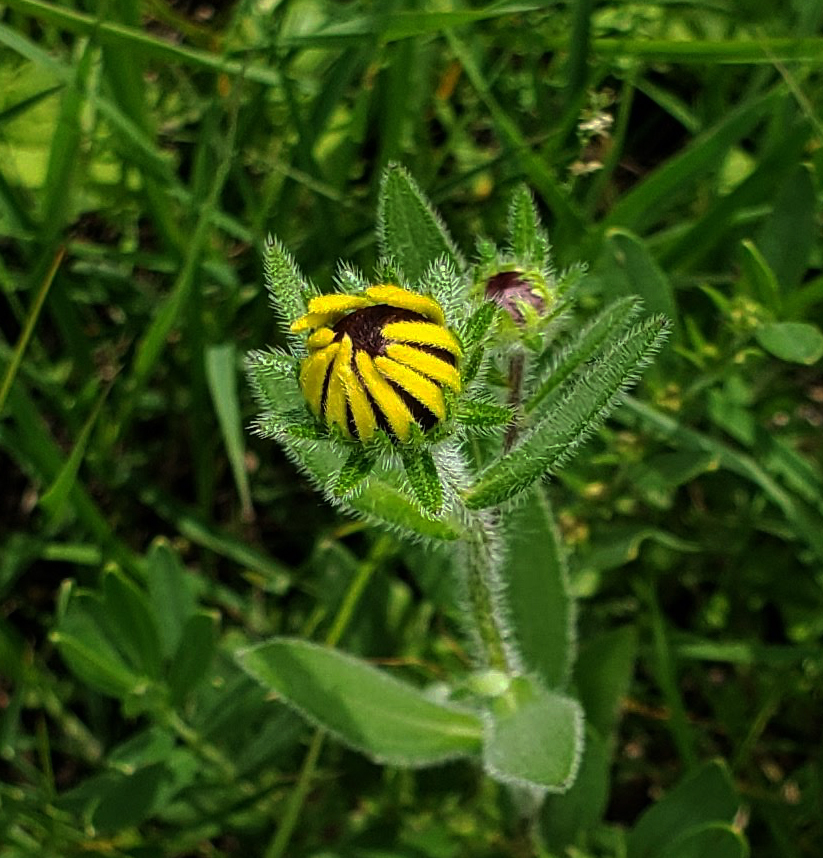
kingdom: Plantae
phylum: Tracheophyta
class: Magnoliopsida
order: Asterales
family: Asteraceae
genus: Rudbeckia
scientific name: Rudbeckia hirta
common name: Black-eyed-susan
